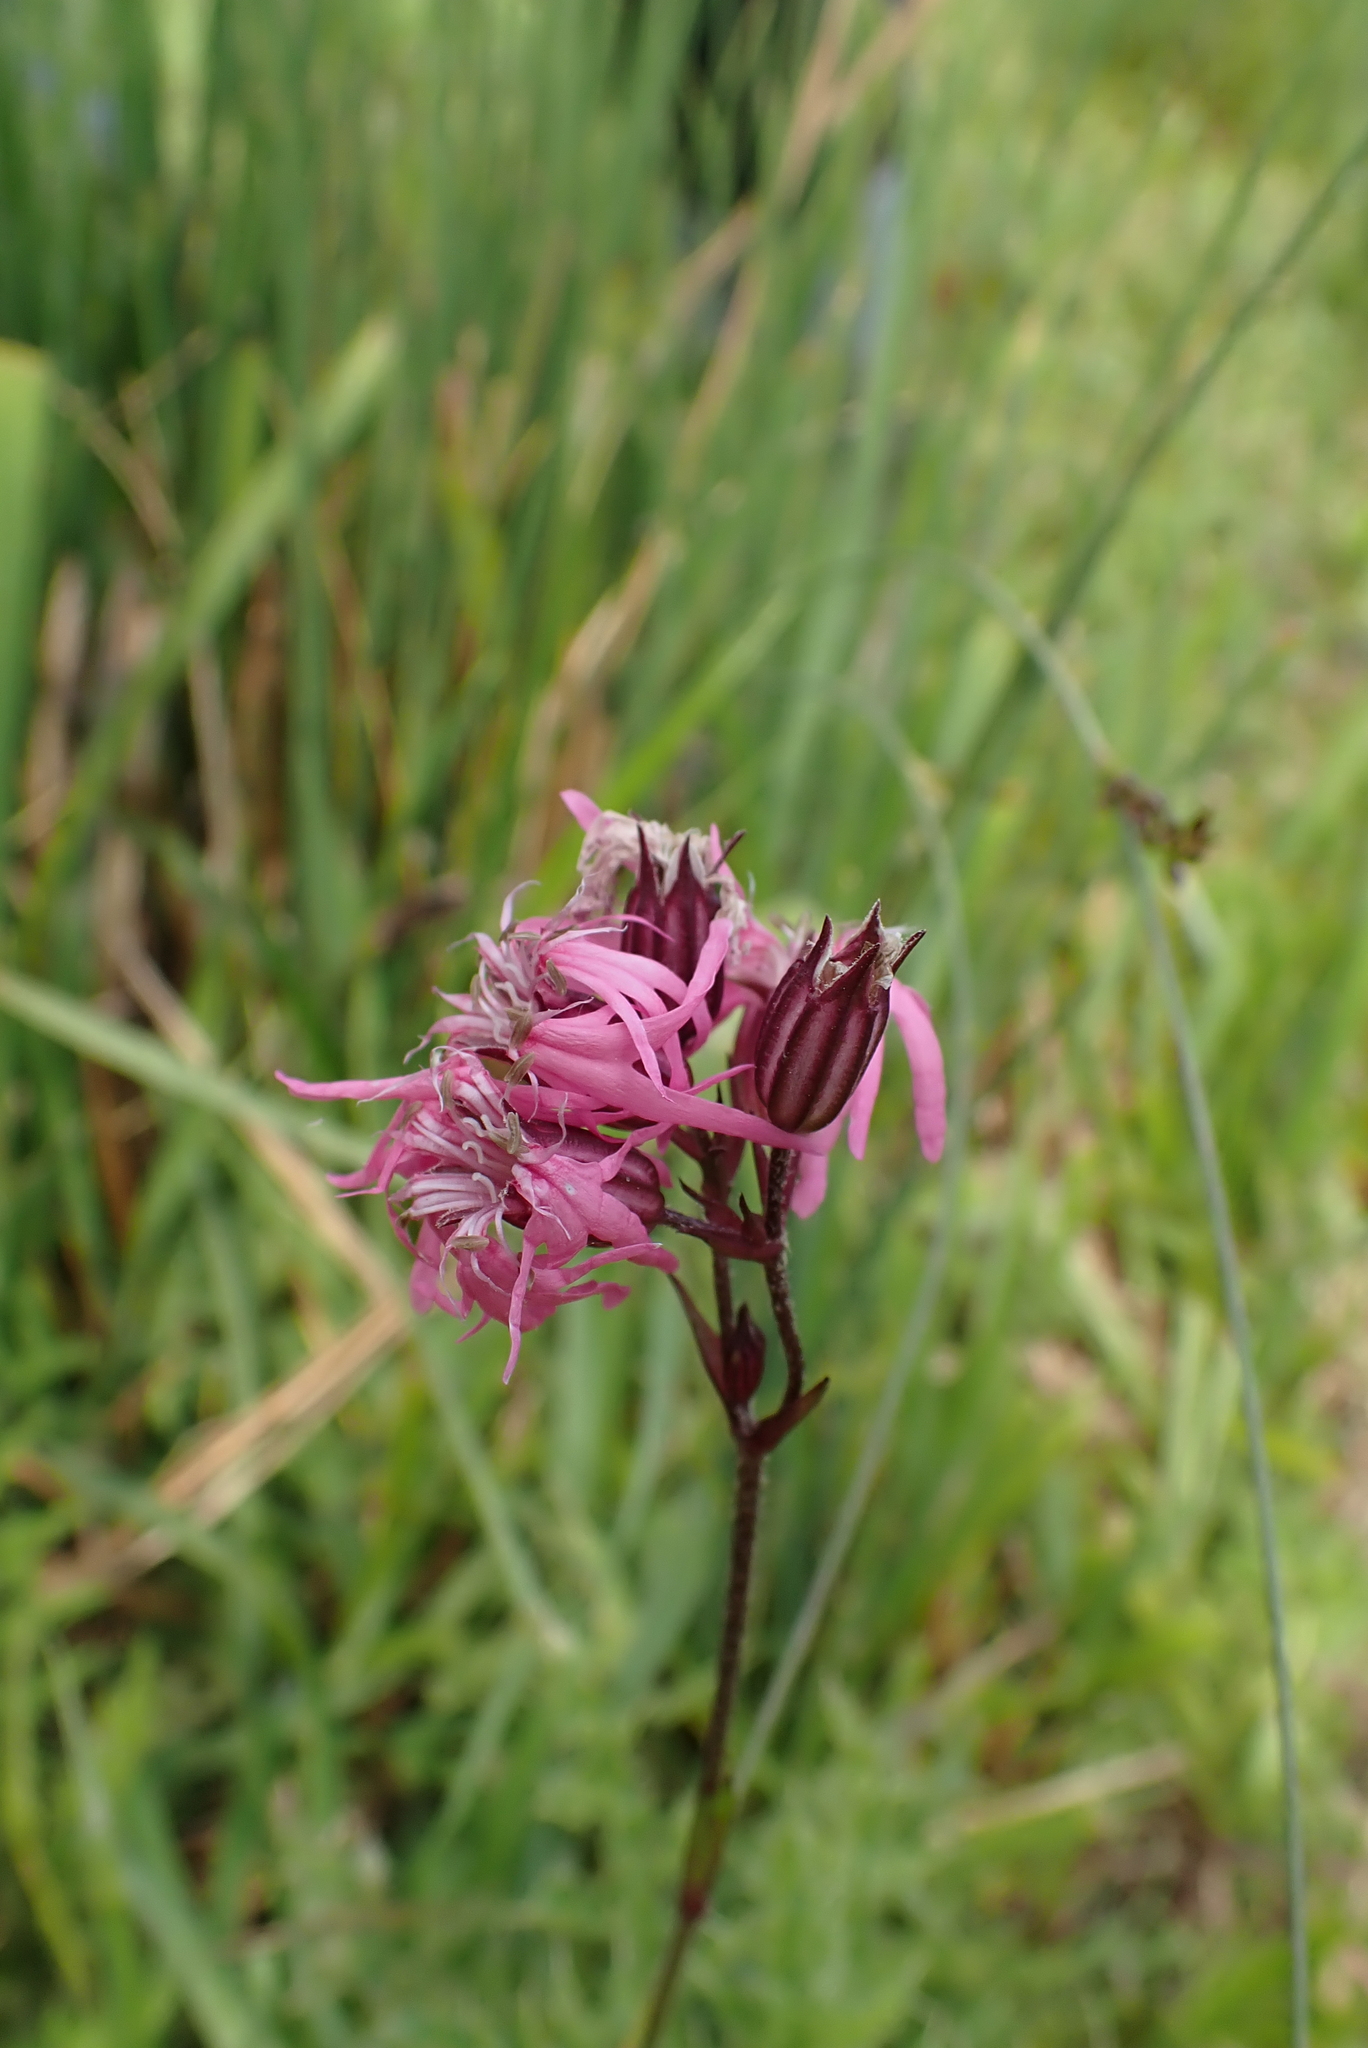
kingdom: Plantae
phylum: Tracheophyta
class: Magnoliopsida
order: Caryophyllales
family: Caryophyllaceae
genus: Silene
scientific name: Silene flos-cuculi
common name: Ragged-robin
